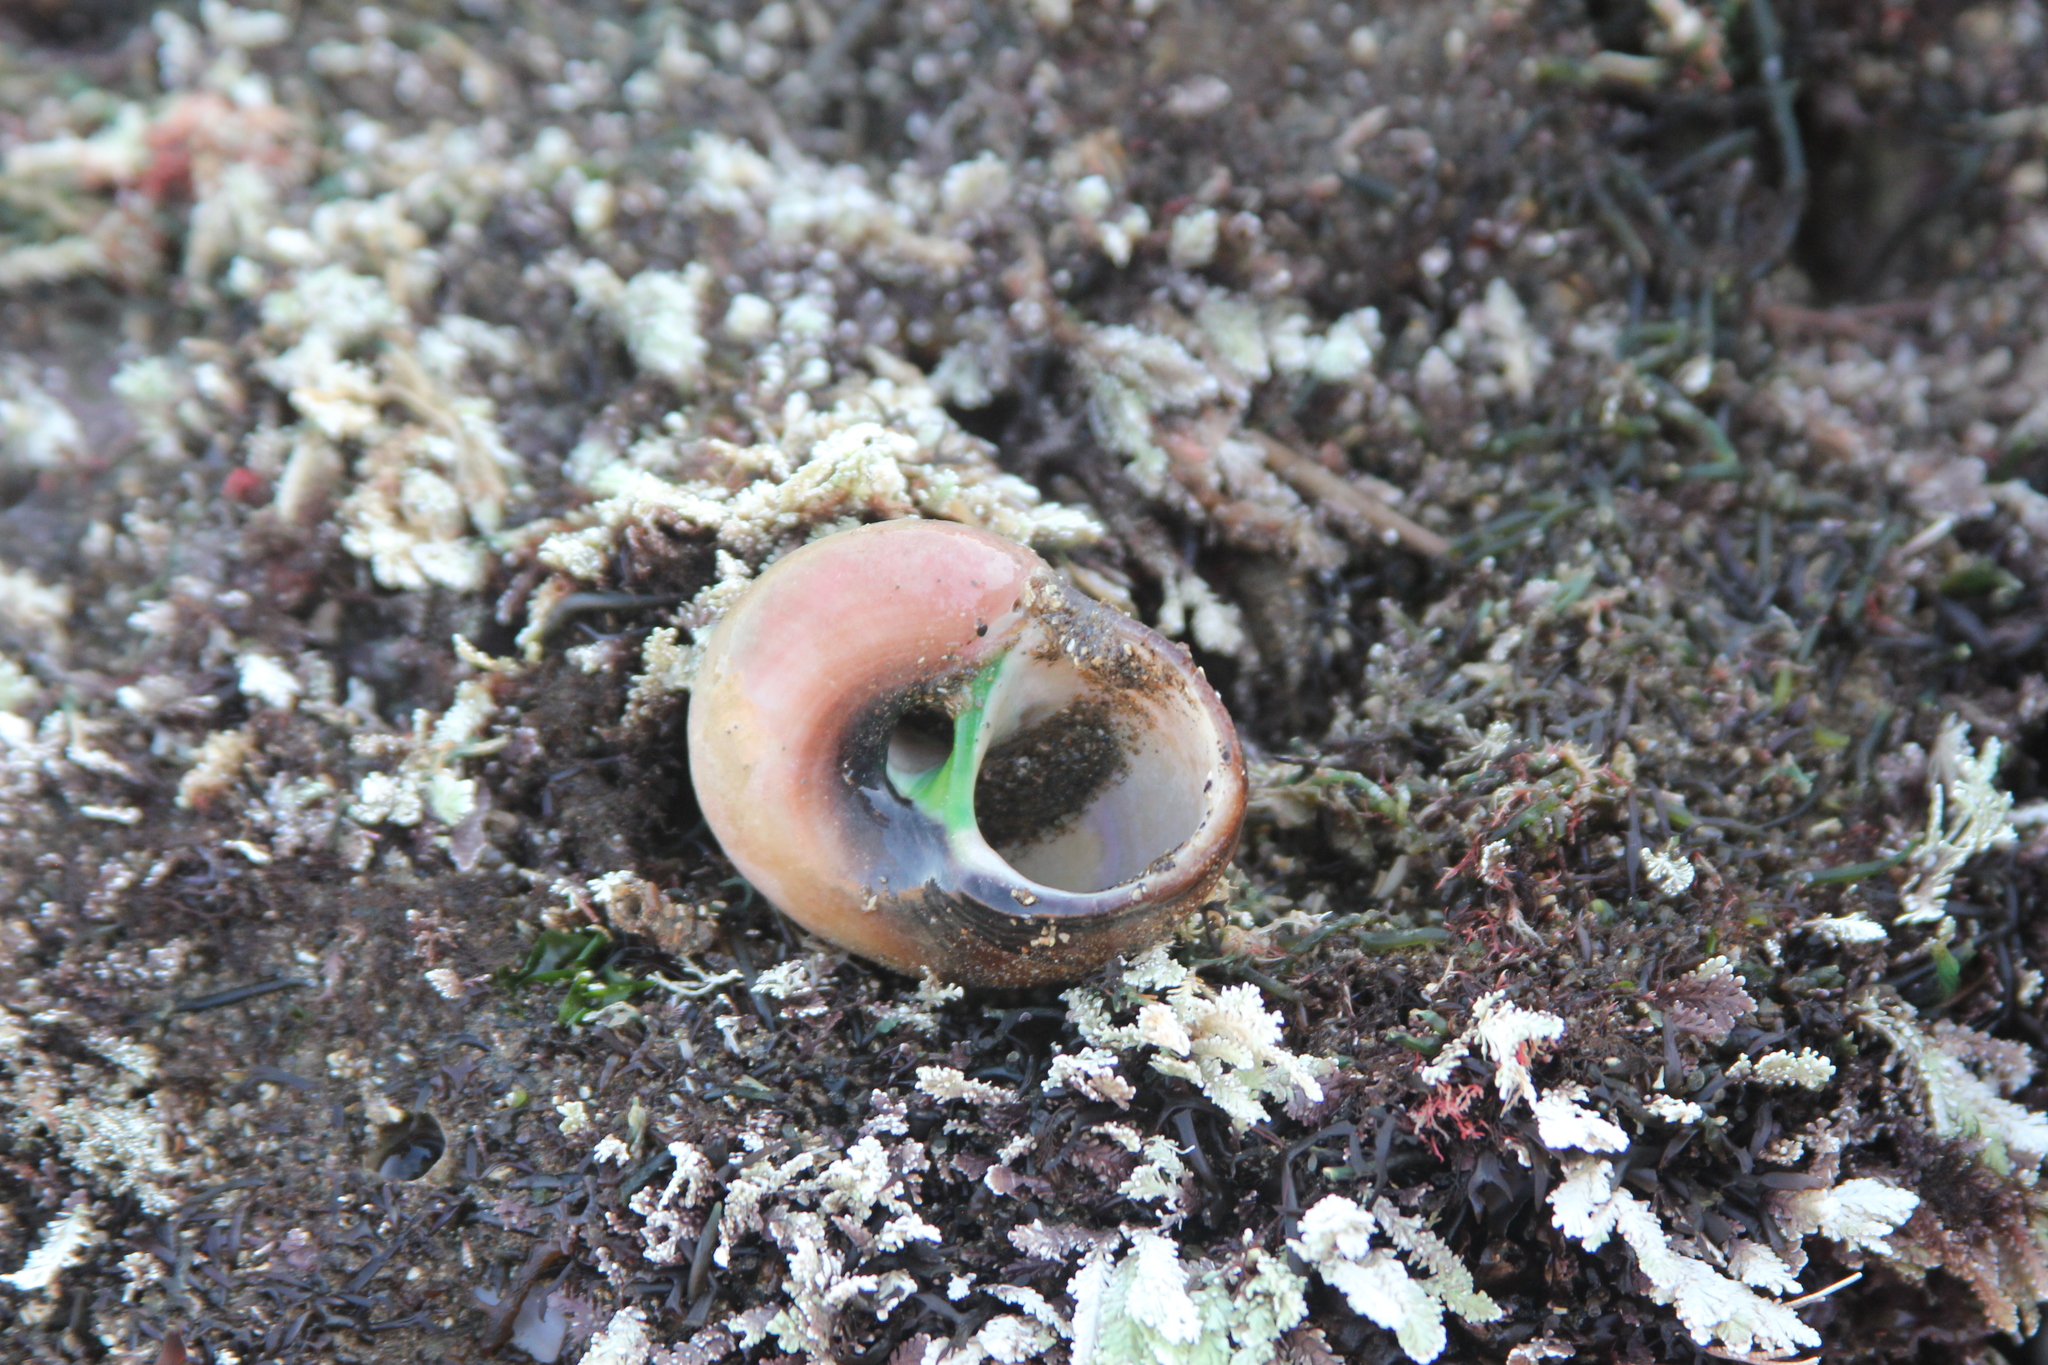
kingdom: Animalia
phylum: Mollusca
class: Gastropoda
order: Trochida
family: Tegulidae
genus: Norrisia
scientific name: Norrisia norrisii
